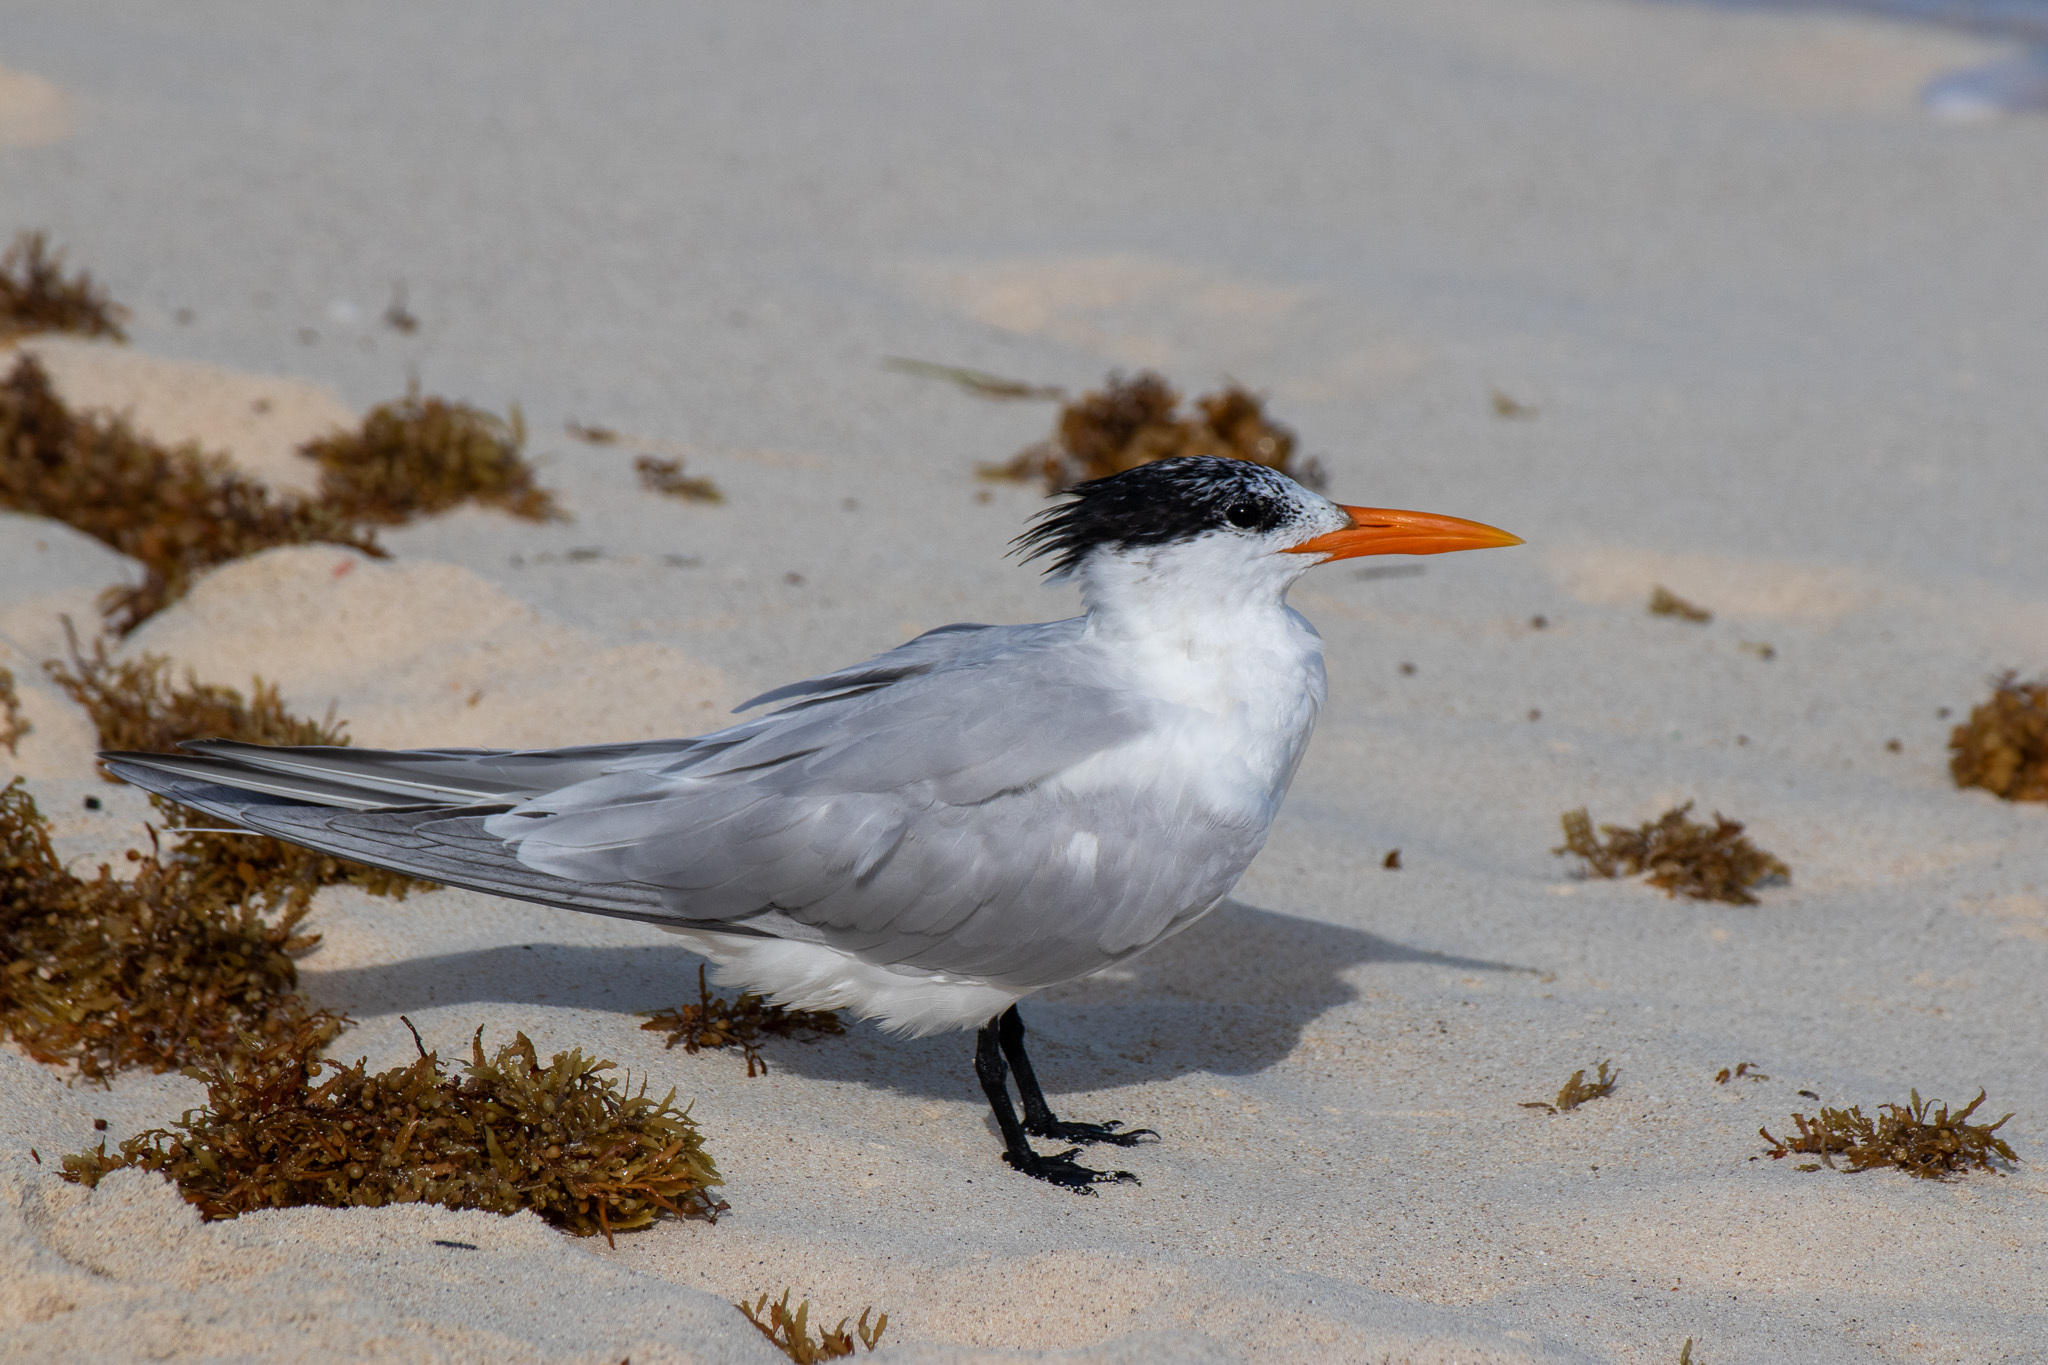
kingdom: Animalia
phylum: Chordata
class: Aves
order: Charadriiformes
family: Laridae
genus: Thalasseus
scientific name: Thalasseus maximus
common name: Royal tern
